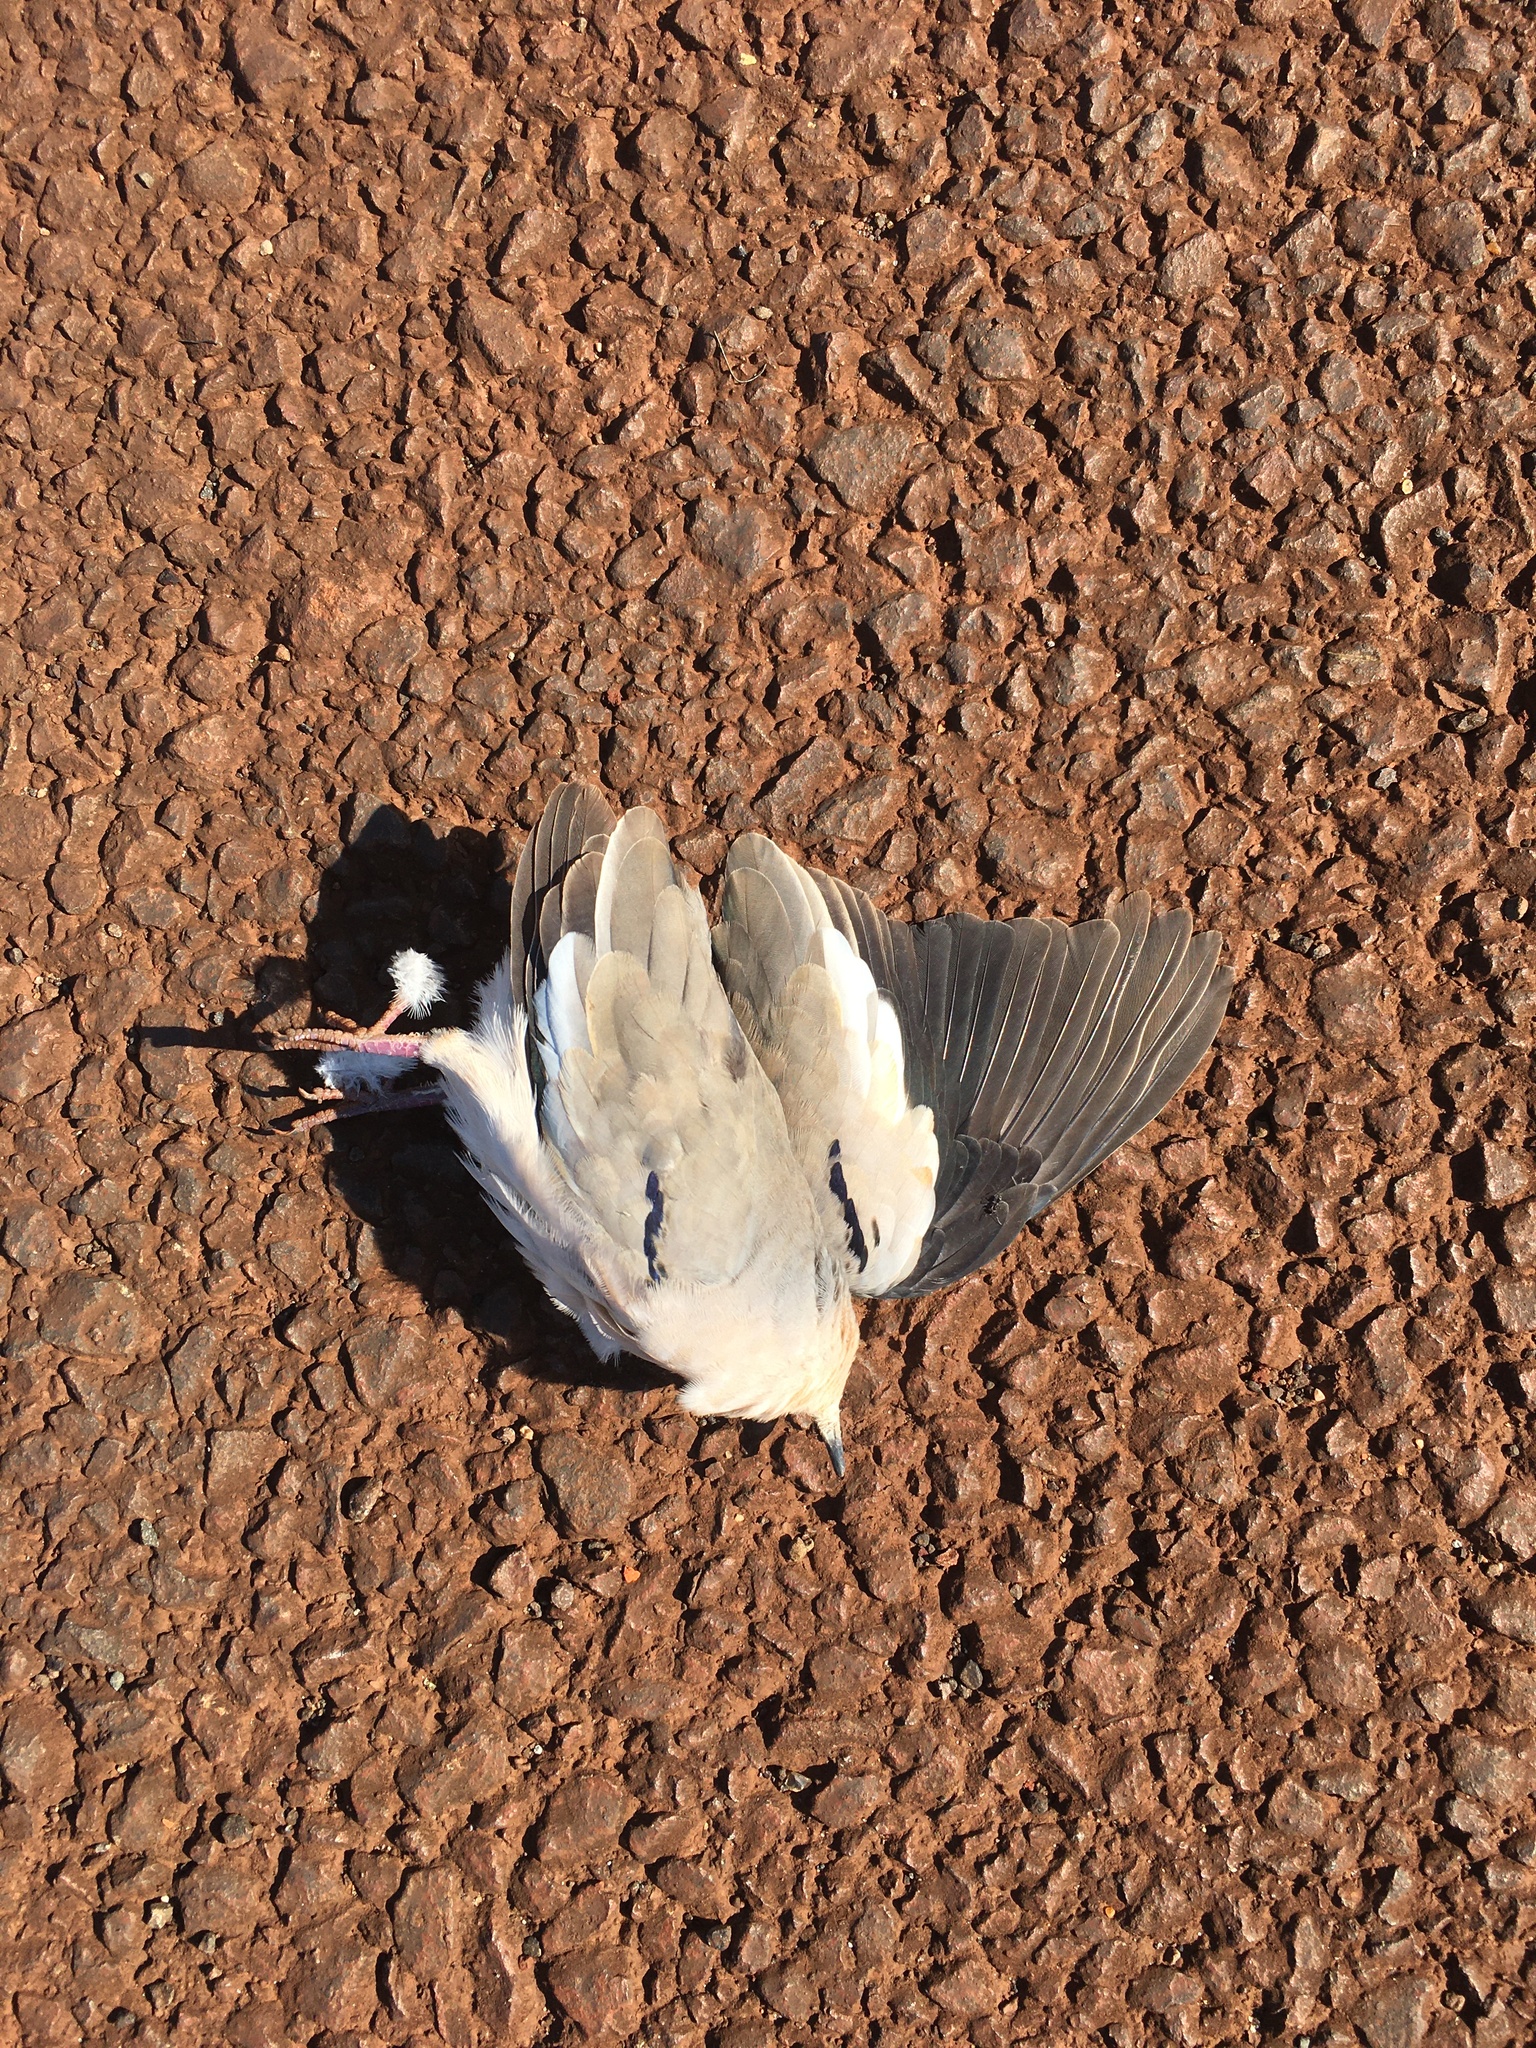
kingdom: Animalia
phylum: Chordata
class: Aves
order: Columbiformes
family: Columbidae
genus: Columbina
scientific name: Columbina picui
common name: Picui ground dove
